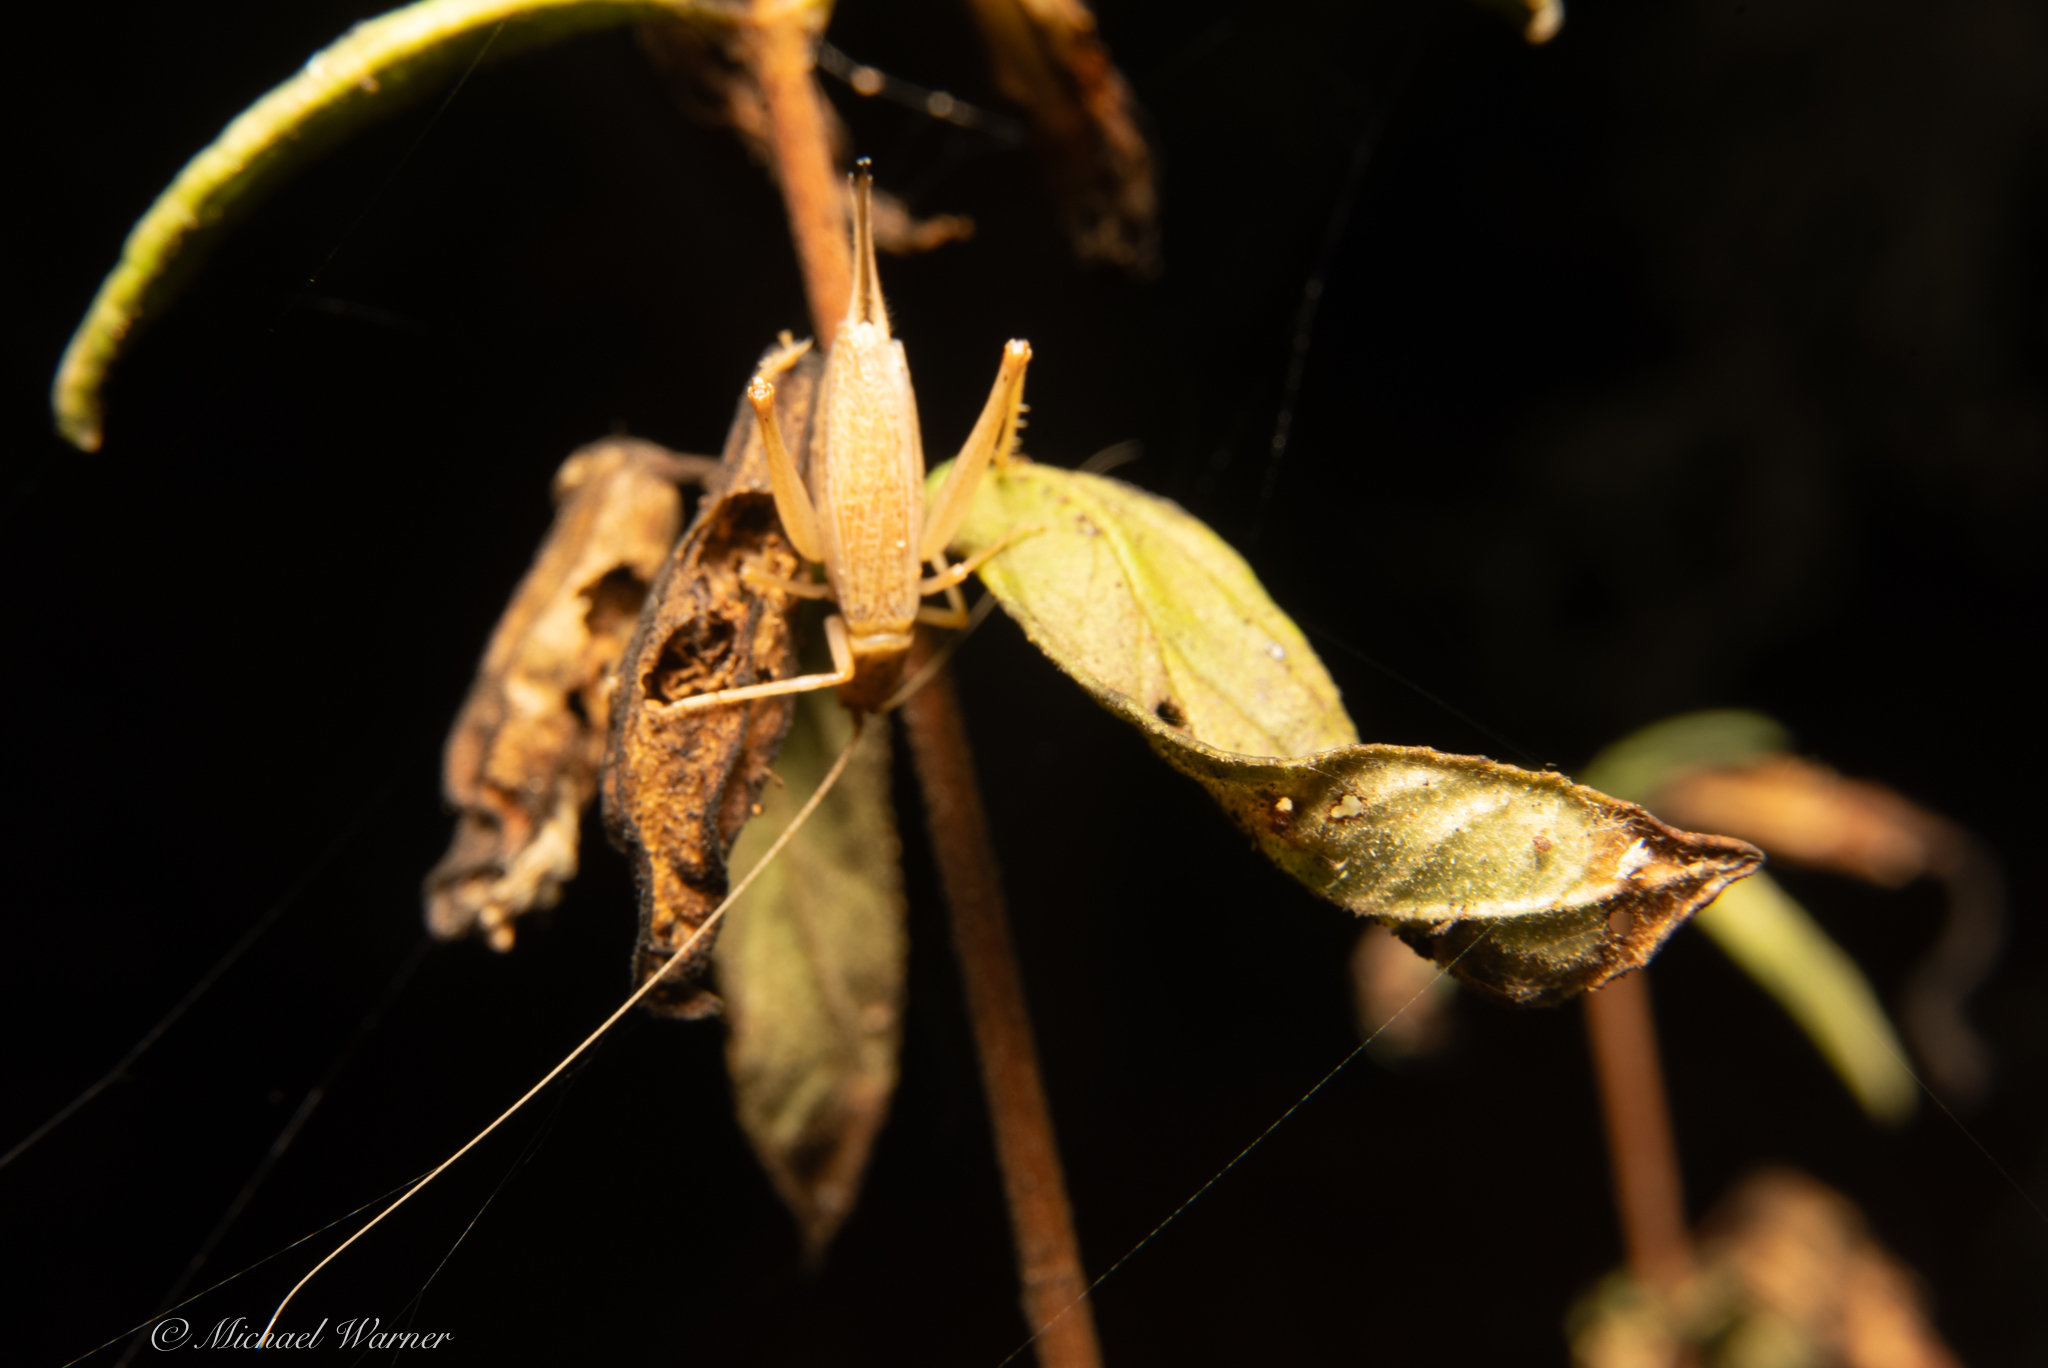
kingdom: Animalia
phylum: Arthropoda
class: Insecta
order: Orthoptera
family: Gryllidae
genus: Oecanthus
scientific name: Oecanthus californicus
